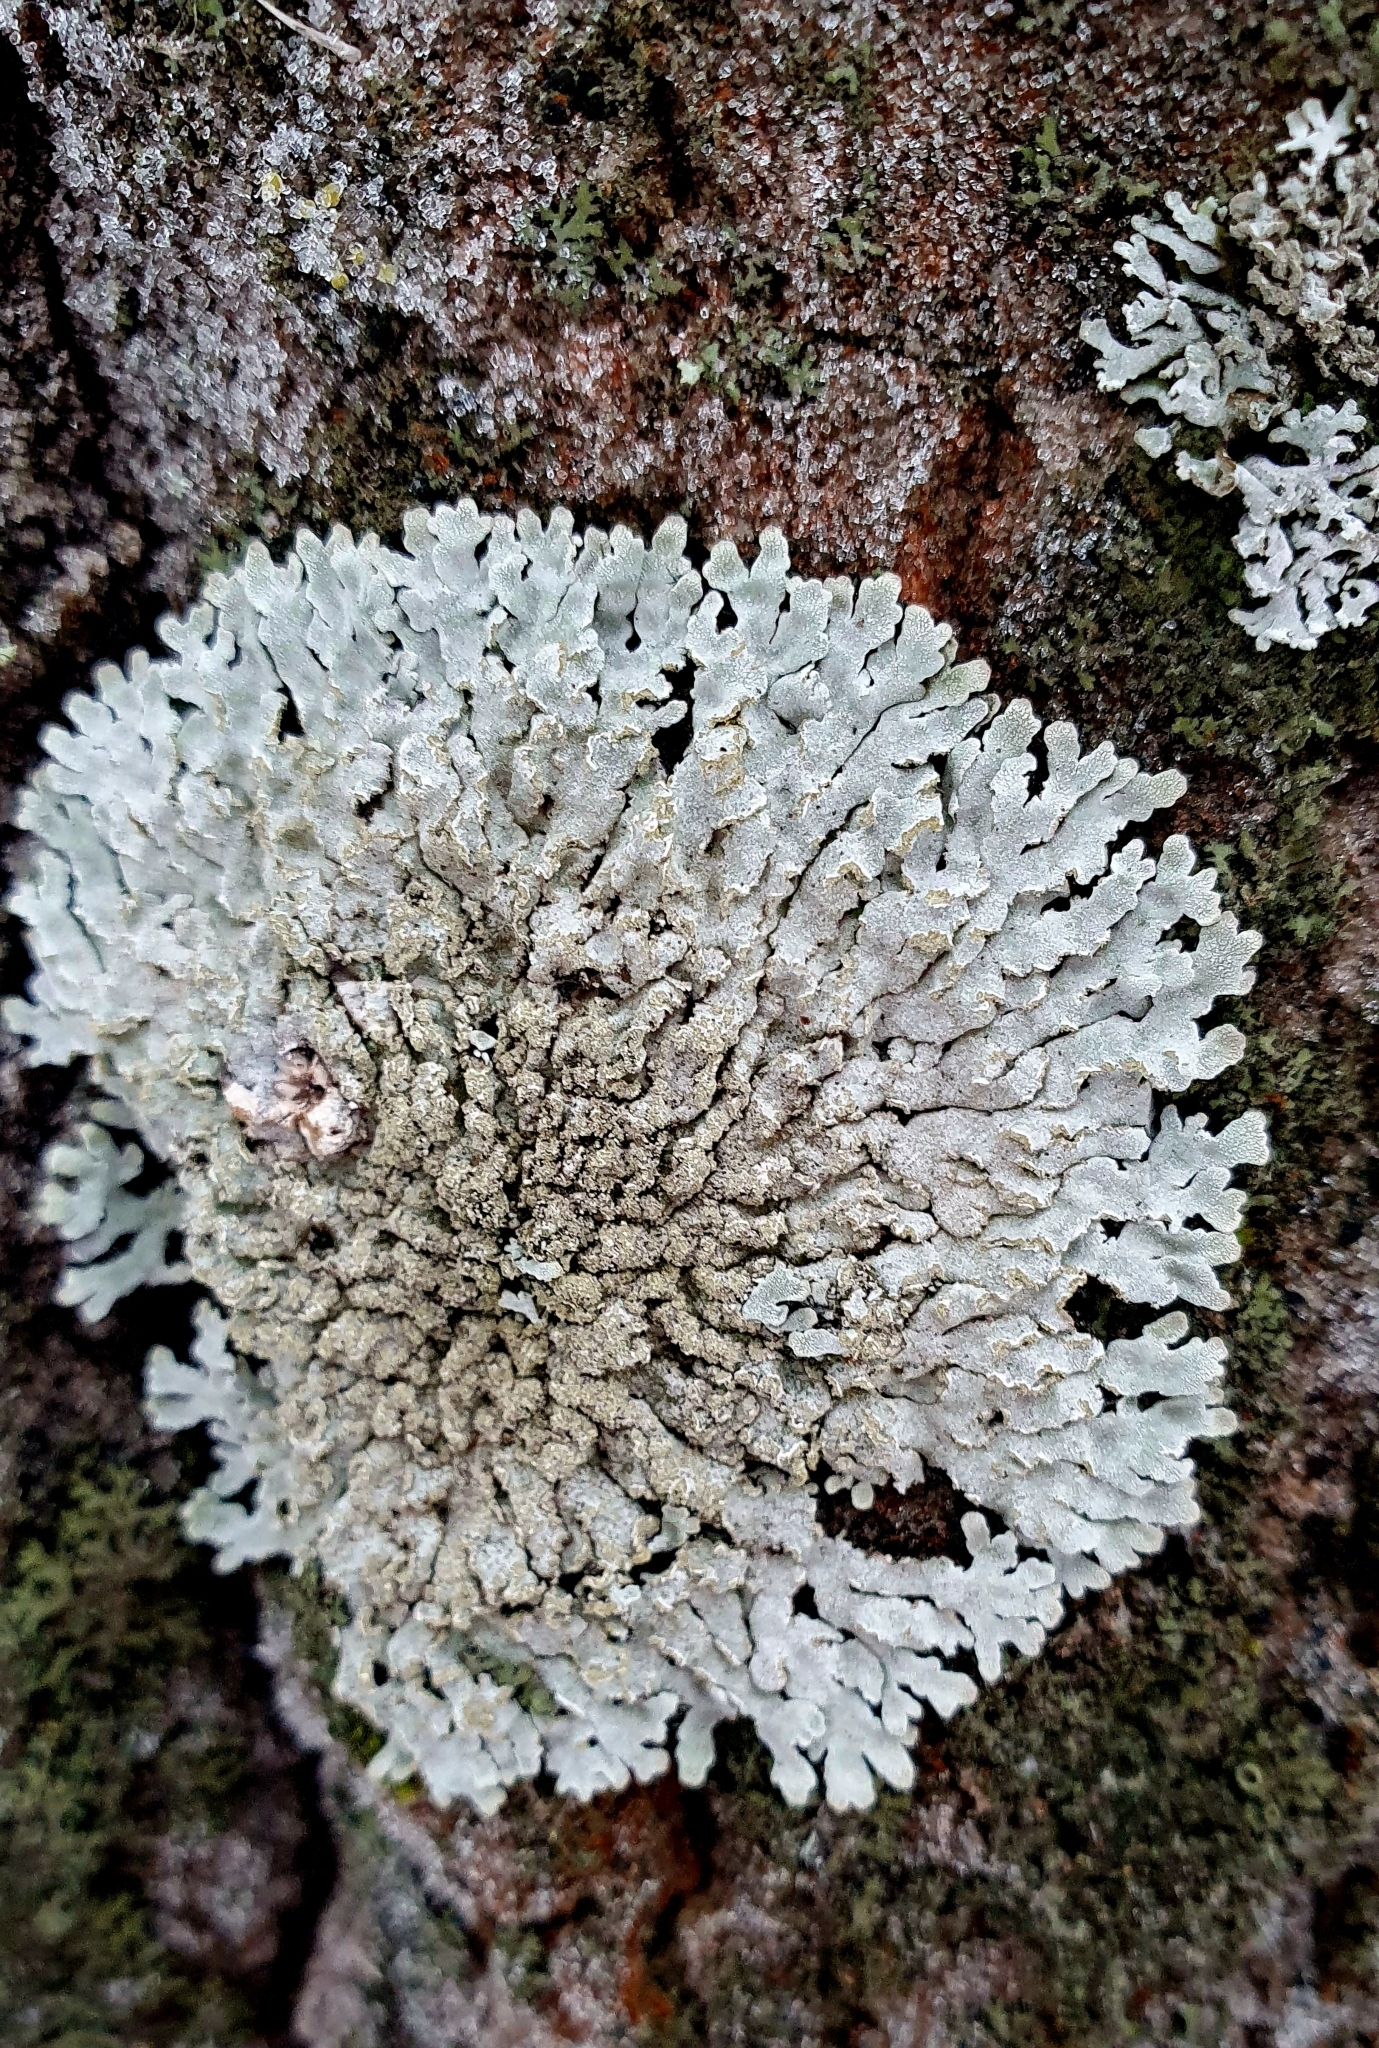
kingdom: Fungi
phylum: Ascomycota
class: Lecanoromycetes
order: Caliciales
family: Physciaceae
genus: Physconia
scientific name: Physconia enteroxantha
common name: Yellow-edged frost lichen
